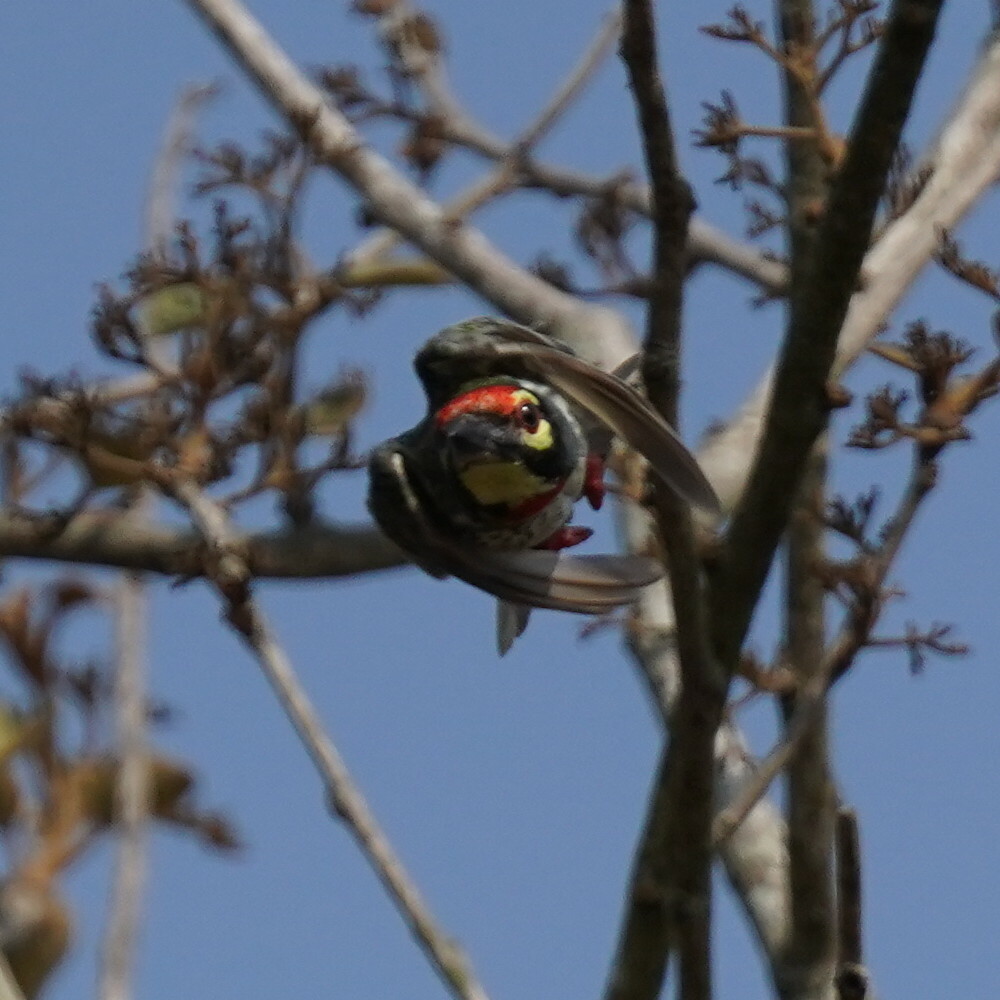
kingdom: Animalia
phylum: Chordata
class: Aves
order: Piciformes
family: Megalaimidae
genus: Psilopogon
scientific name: Psilopogon haemacephalus
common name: Coppersmith barbet
